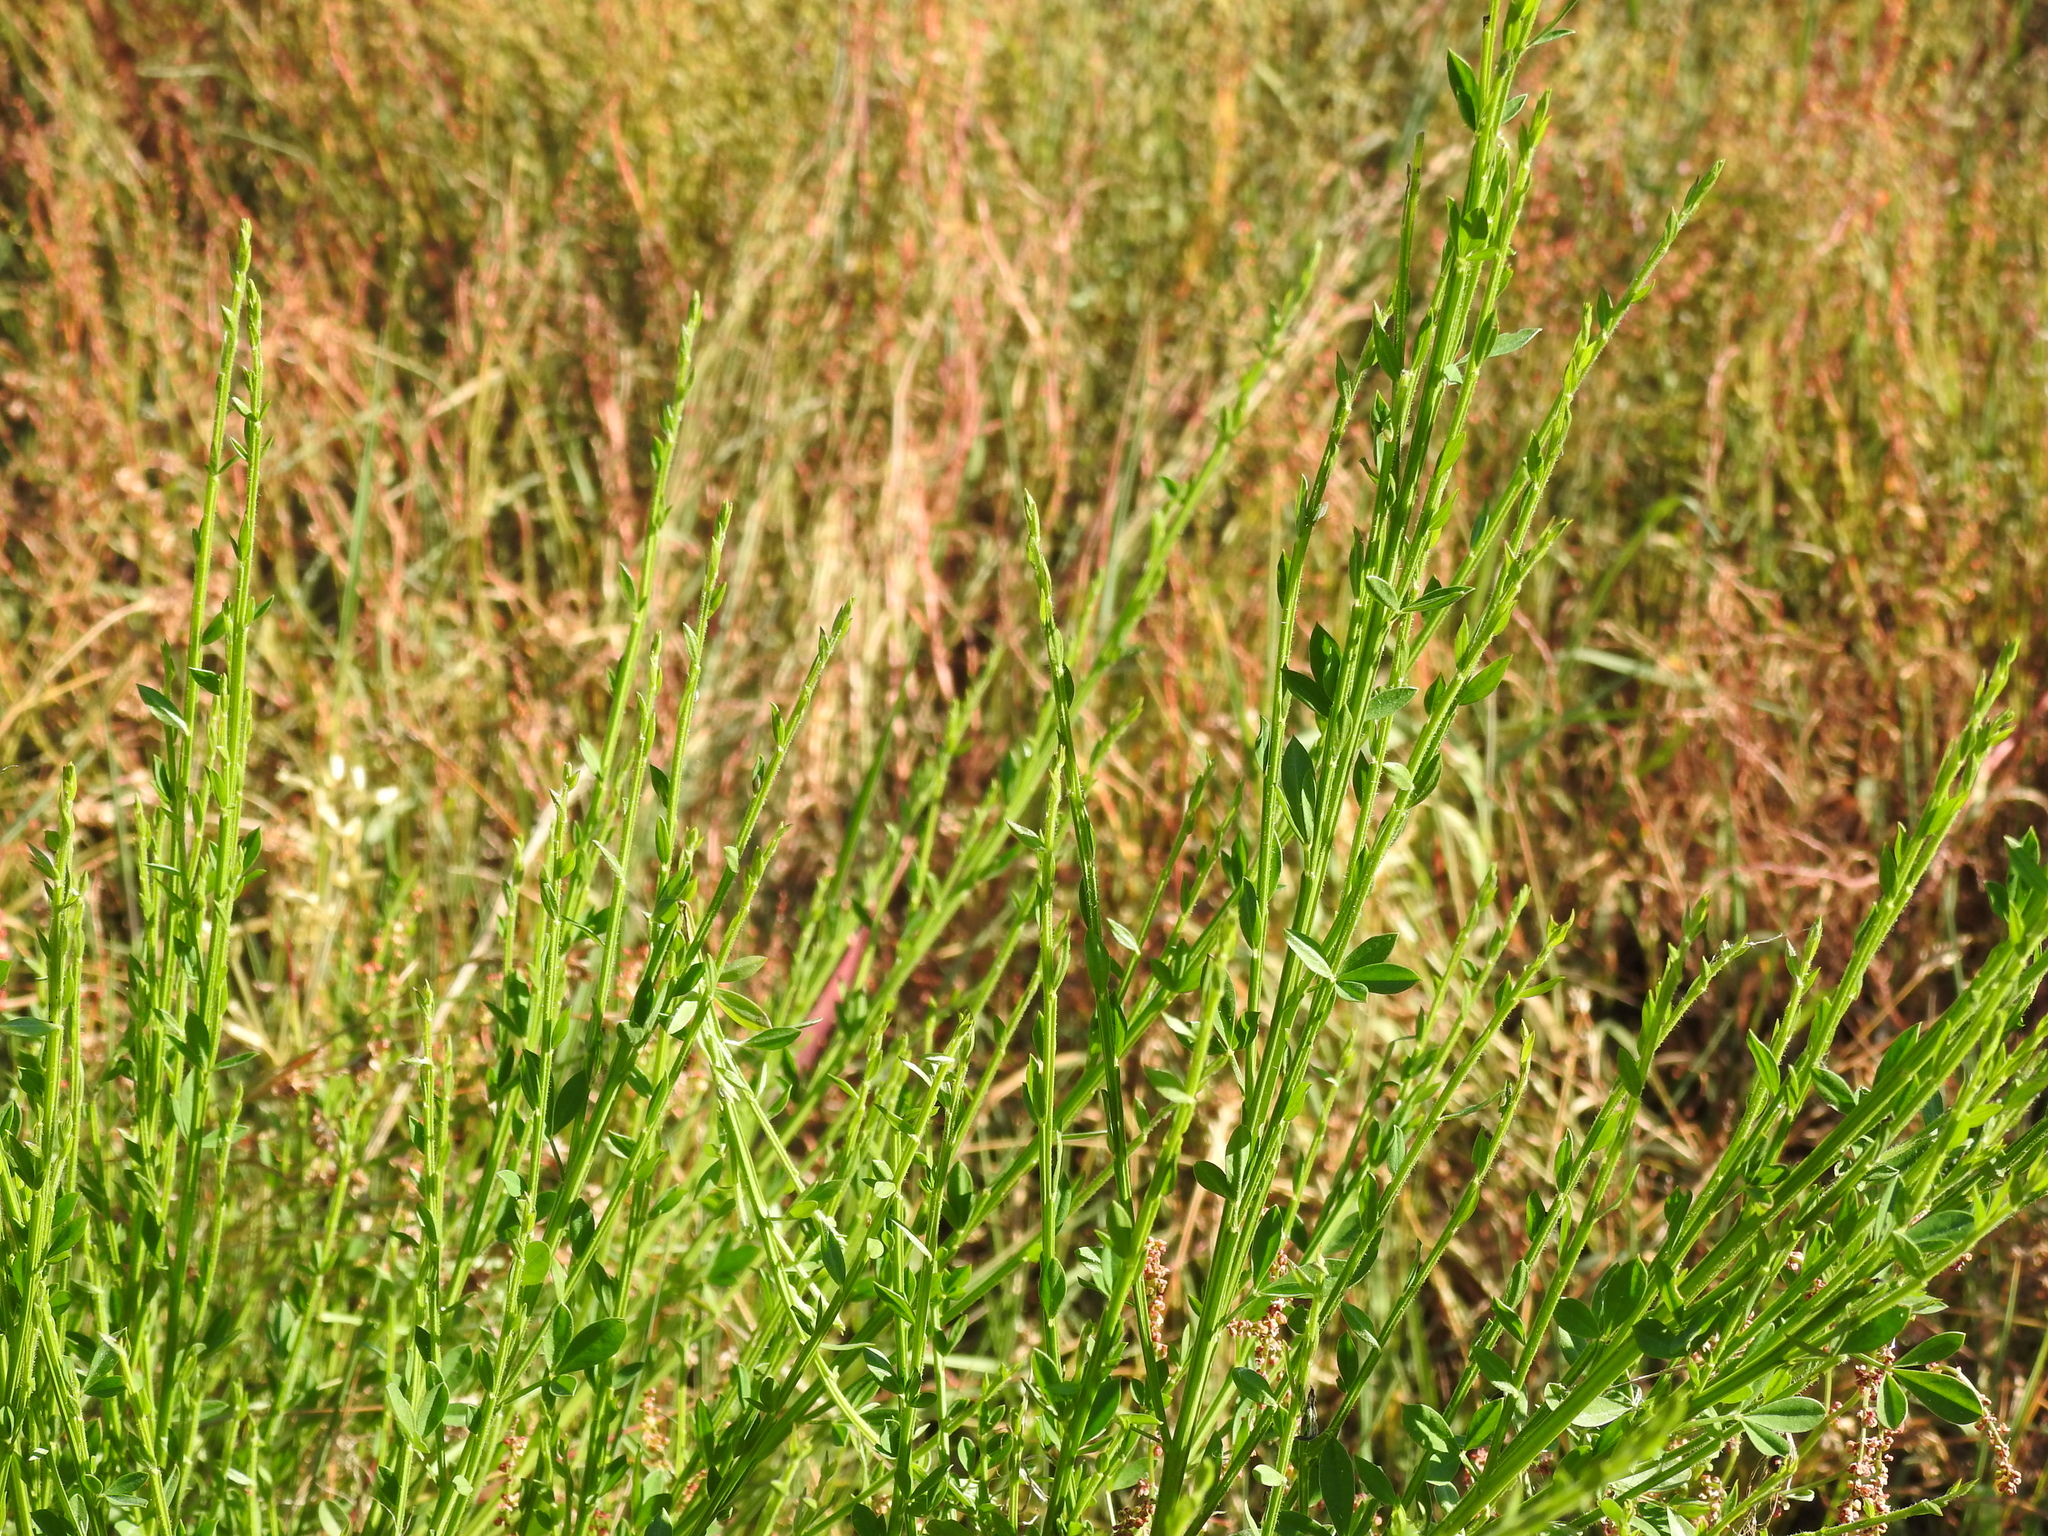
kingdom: Plantae
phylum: Tracheophyta
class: Magnoliopsida
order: Fabales
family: Fabaceae
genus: Cytisus
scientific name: Cytisus scoparius
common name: Scotch broom
